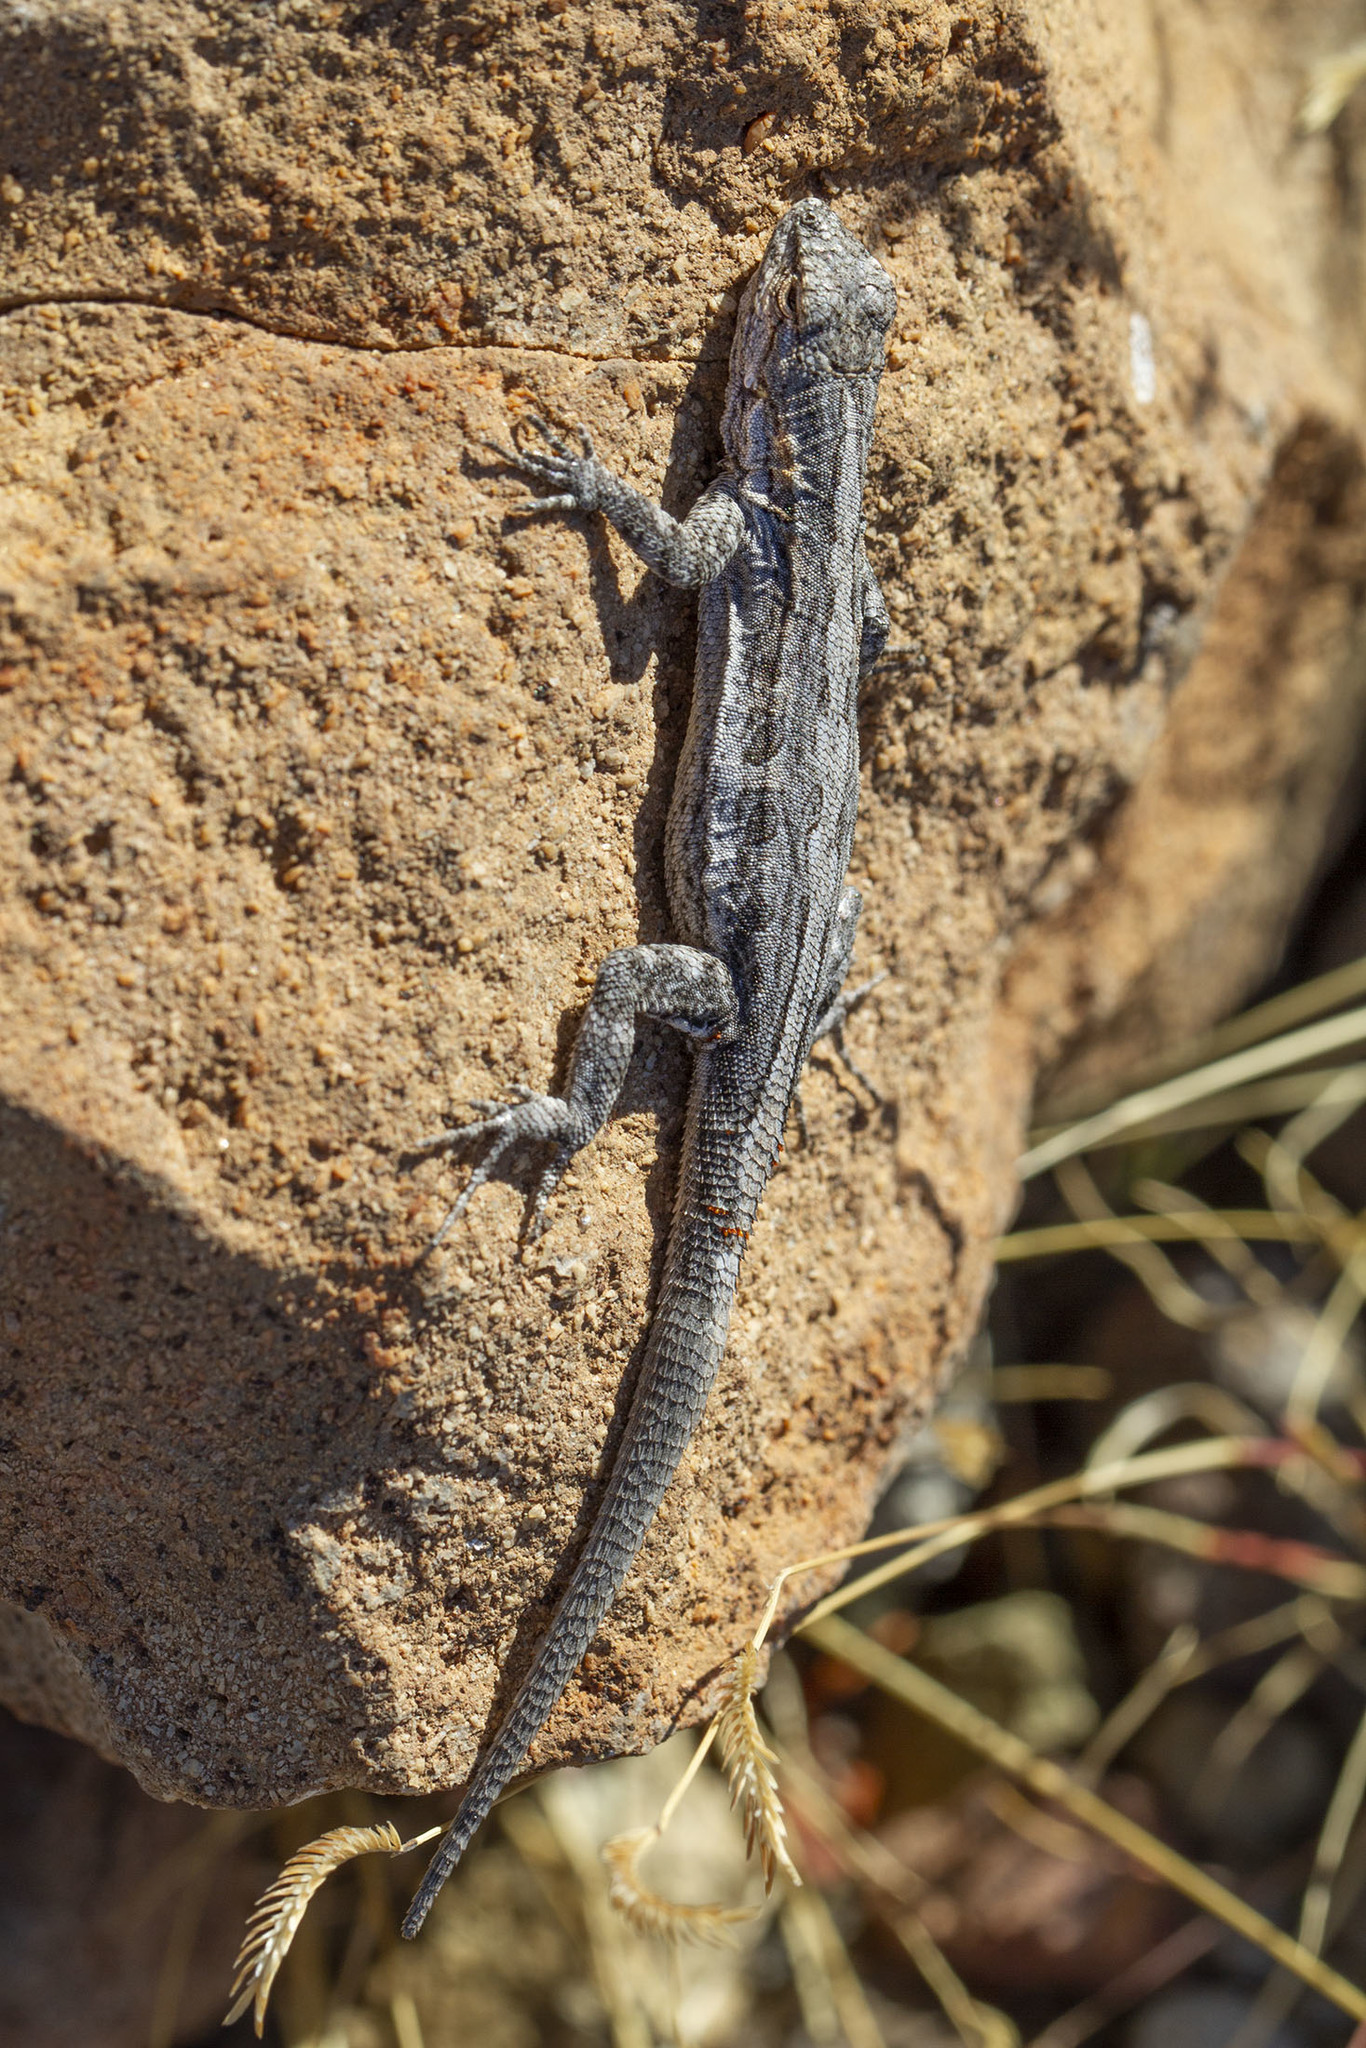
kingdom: Animalia
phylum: Chordata
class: Squamata
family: Phrynosomatidae
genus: Urosaurus
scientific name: Urosaurus nigricauda
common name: Baja california brush lizard
